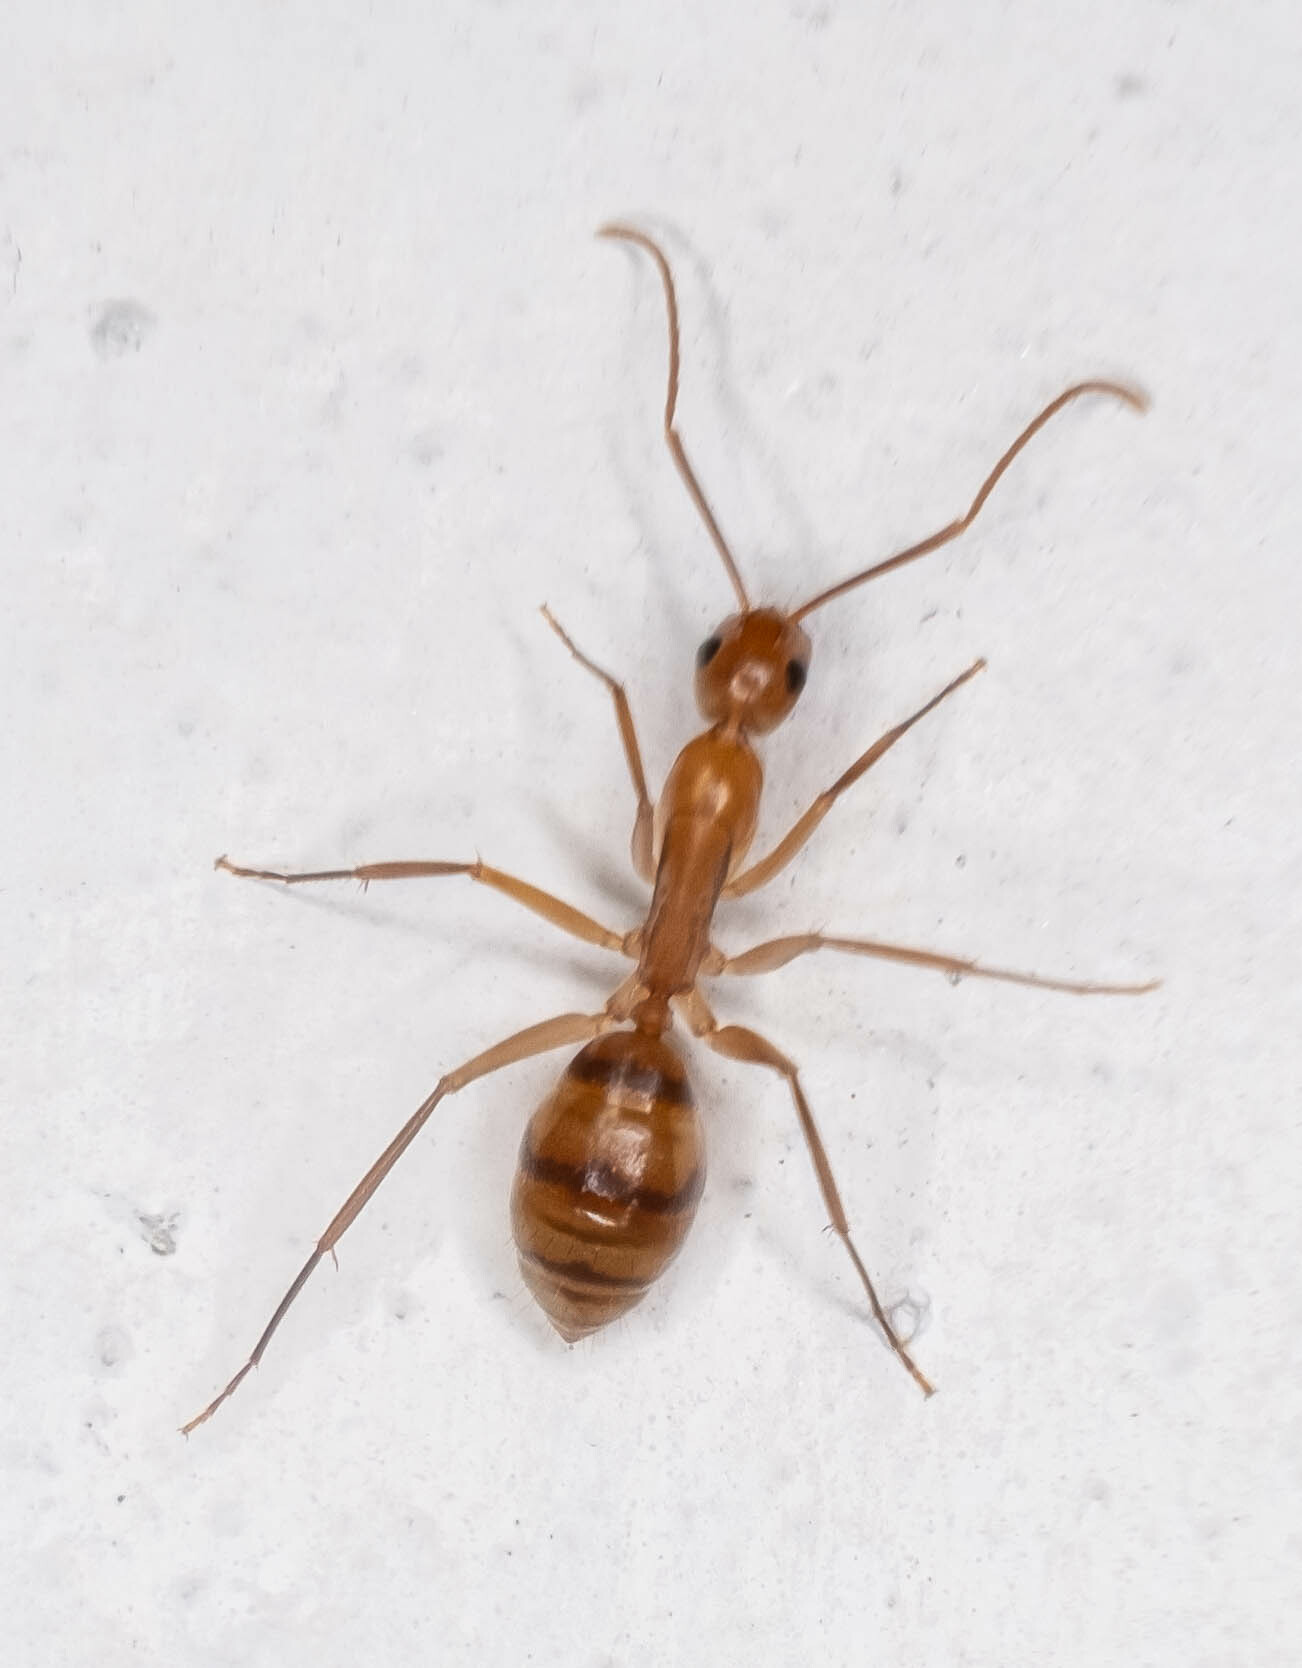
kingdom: Animalia
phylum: Arthropoda
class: Insecta
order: Hymenoptera
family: Formicidae
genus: Camponotus
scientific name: Camponotus
